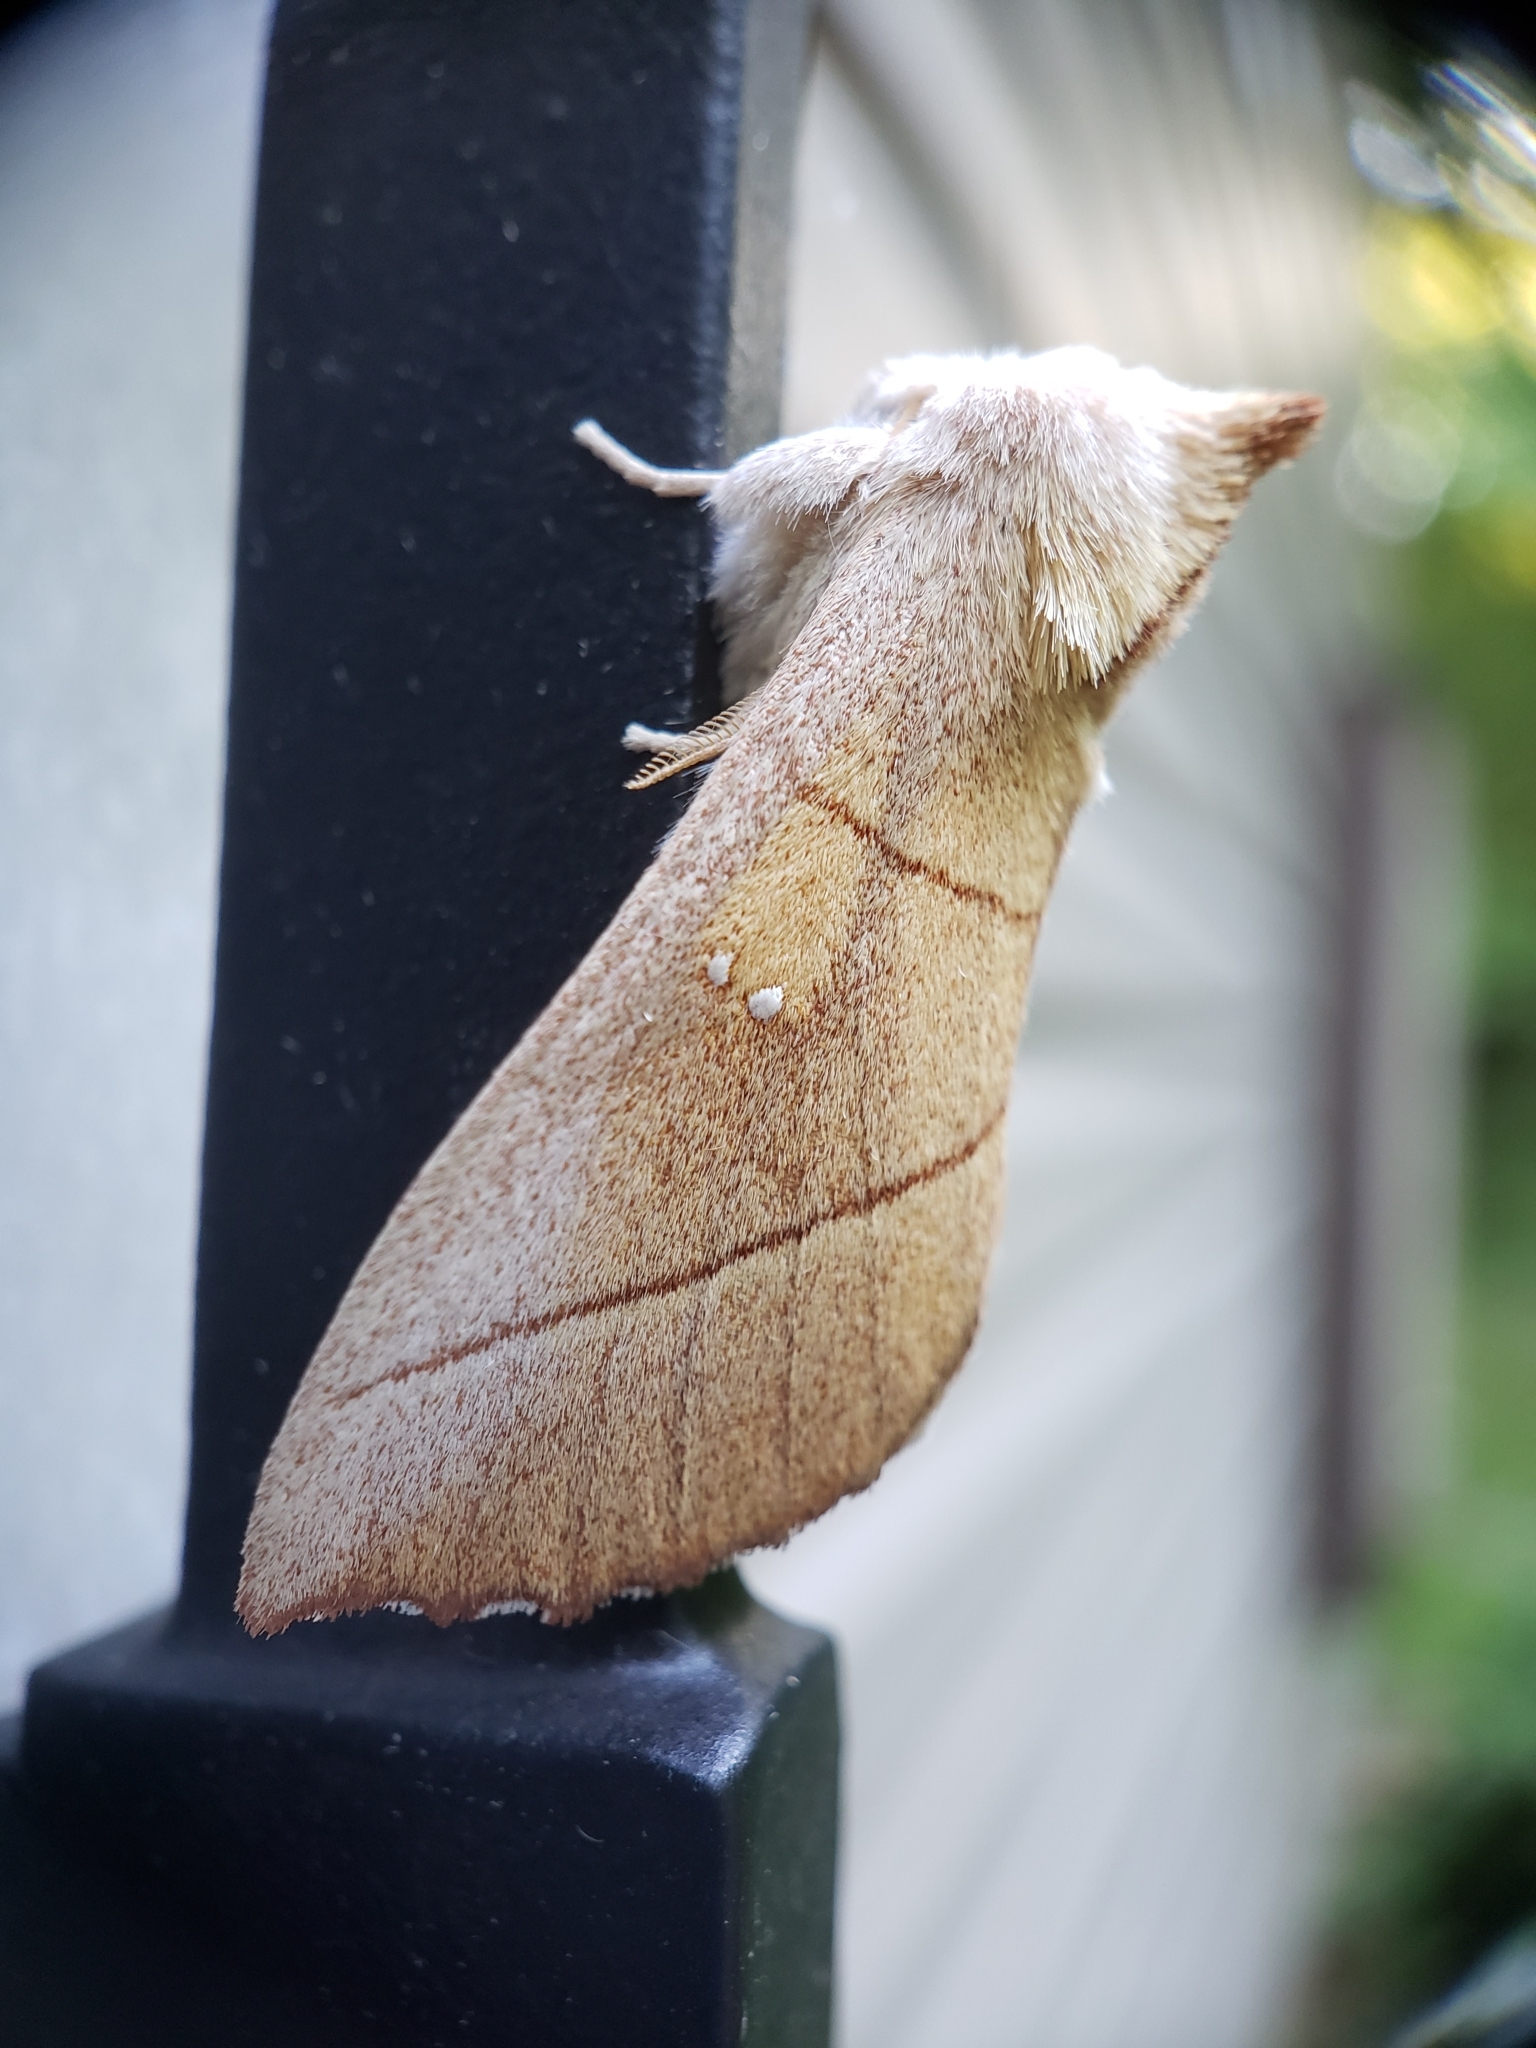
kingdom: Animalia
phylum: Arthropoda
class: Insecta
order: Lepidoptera
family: Notodontidae
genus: Nadata
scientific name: Nadata gibbosa
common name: White-dotted prominent
